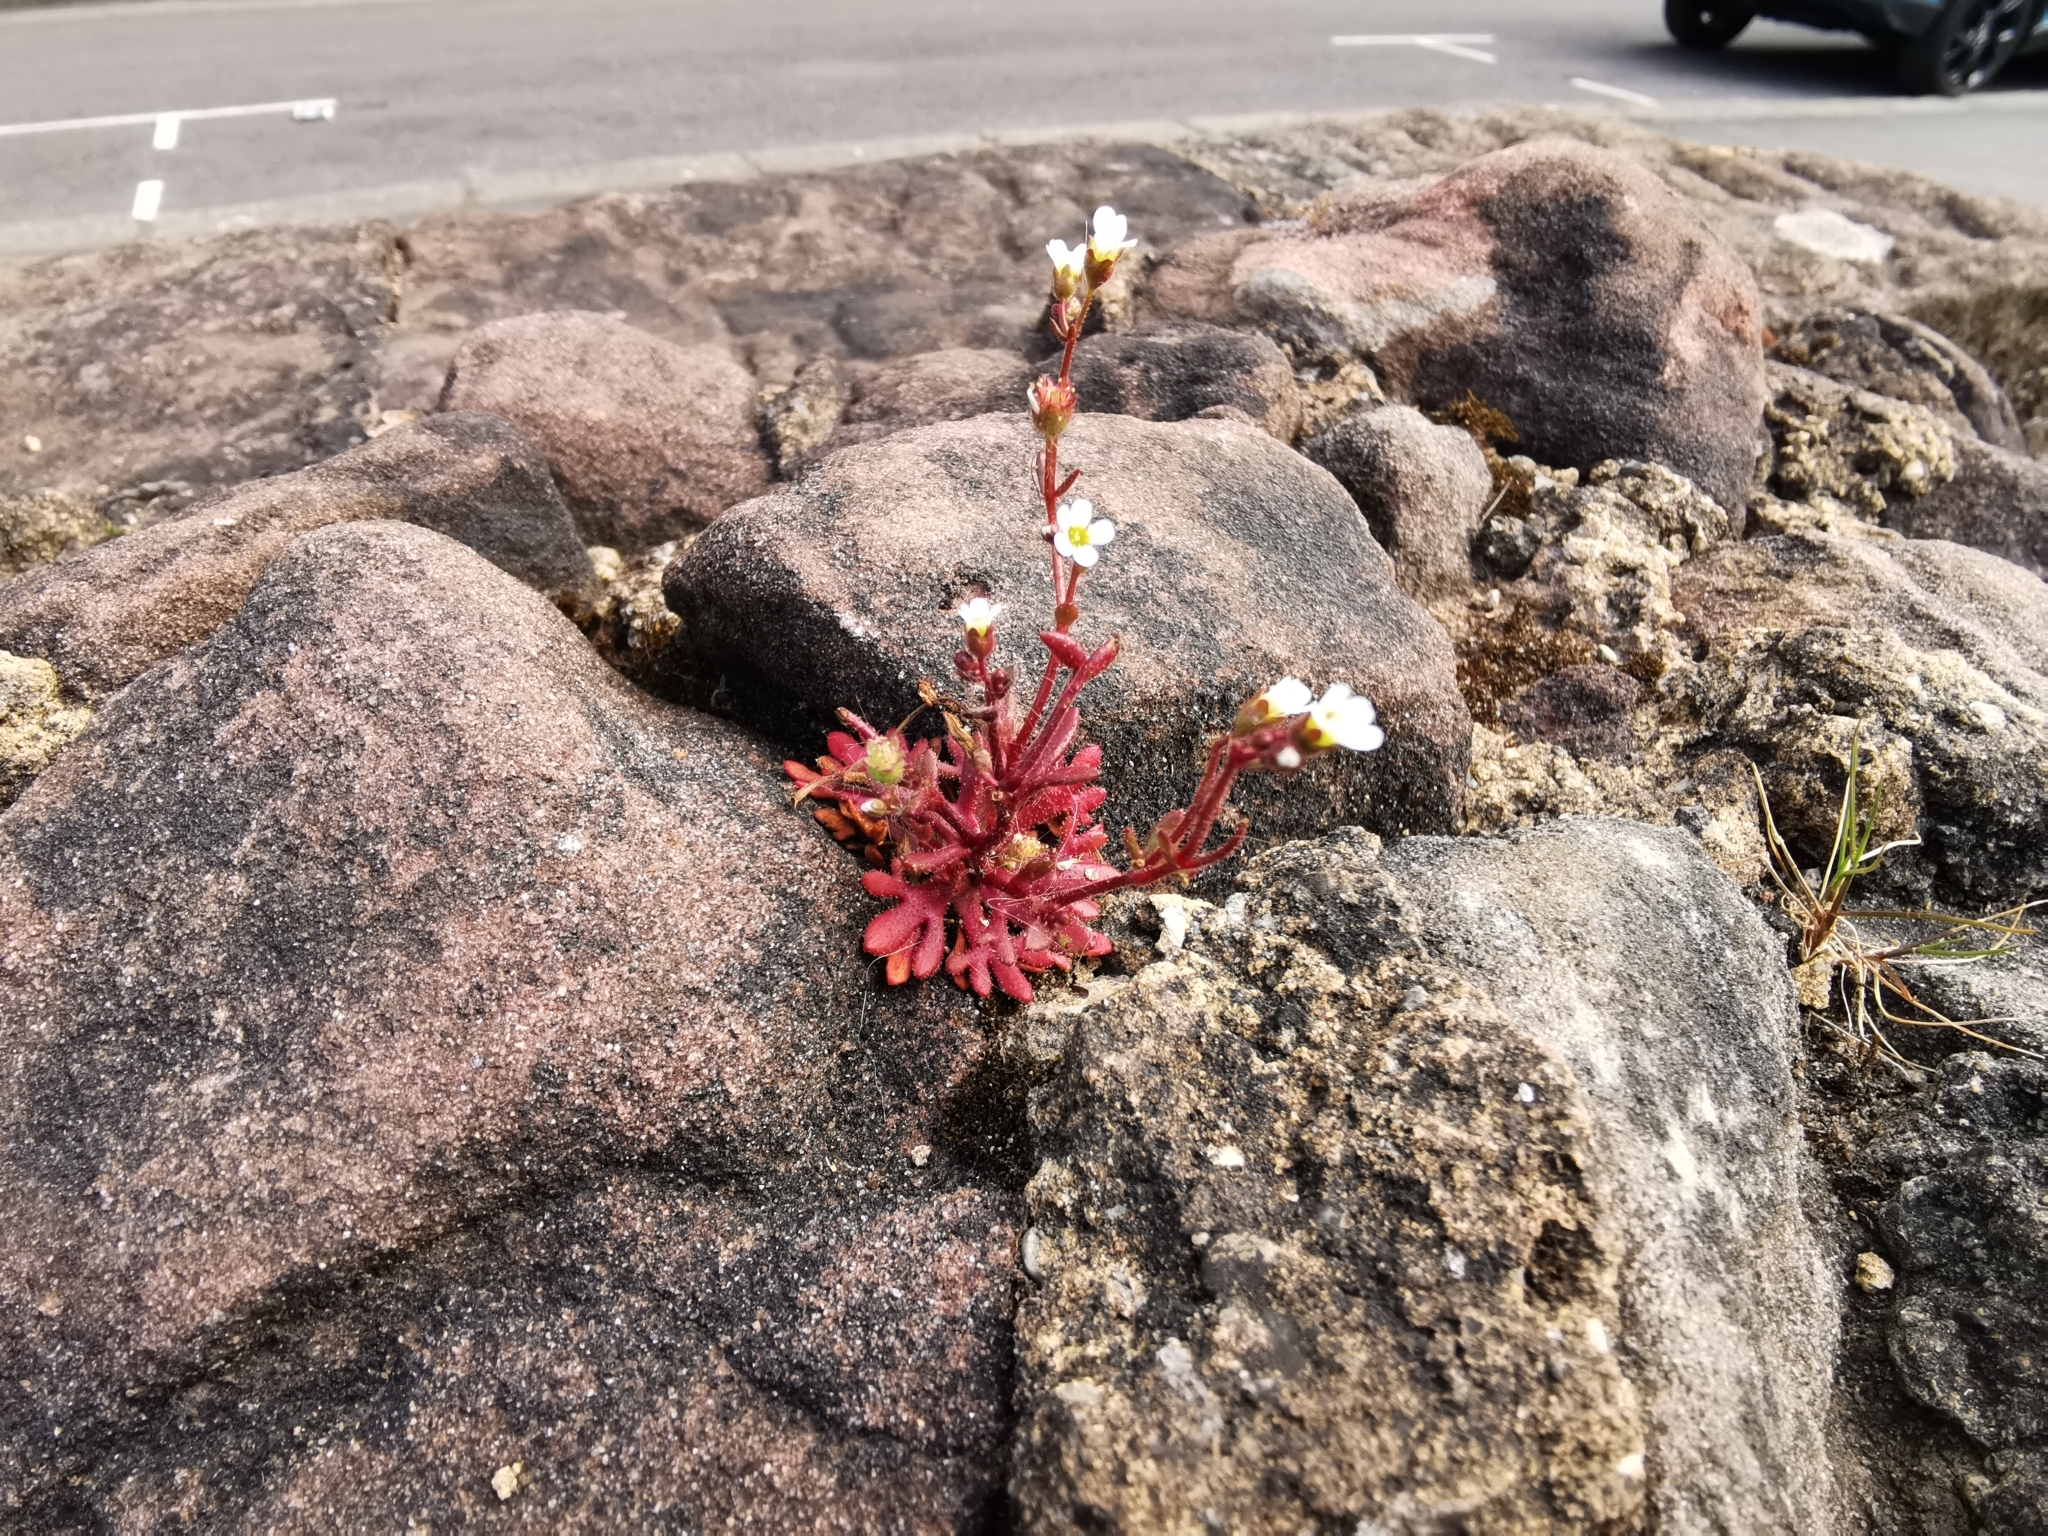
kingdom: Plantae
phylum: Tracheophyta
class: Magnoliopsida
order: Saxifragales
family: Saxifragaceae
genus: Saxifraga
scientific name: Saxifraga tridactylites
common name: Rue-leaved saxifrage
